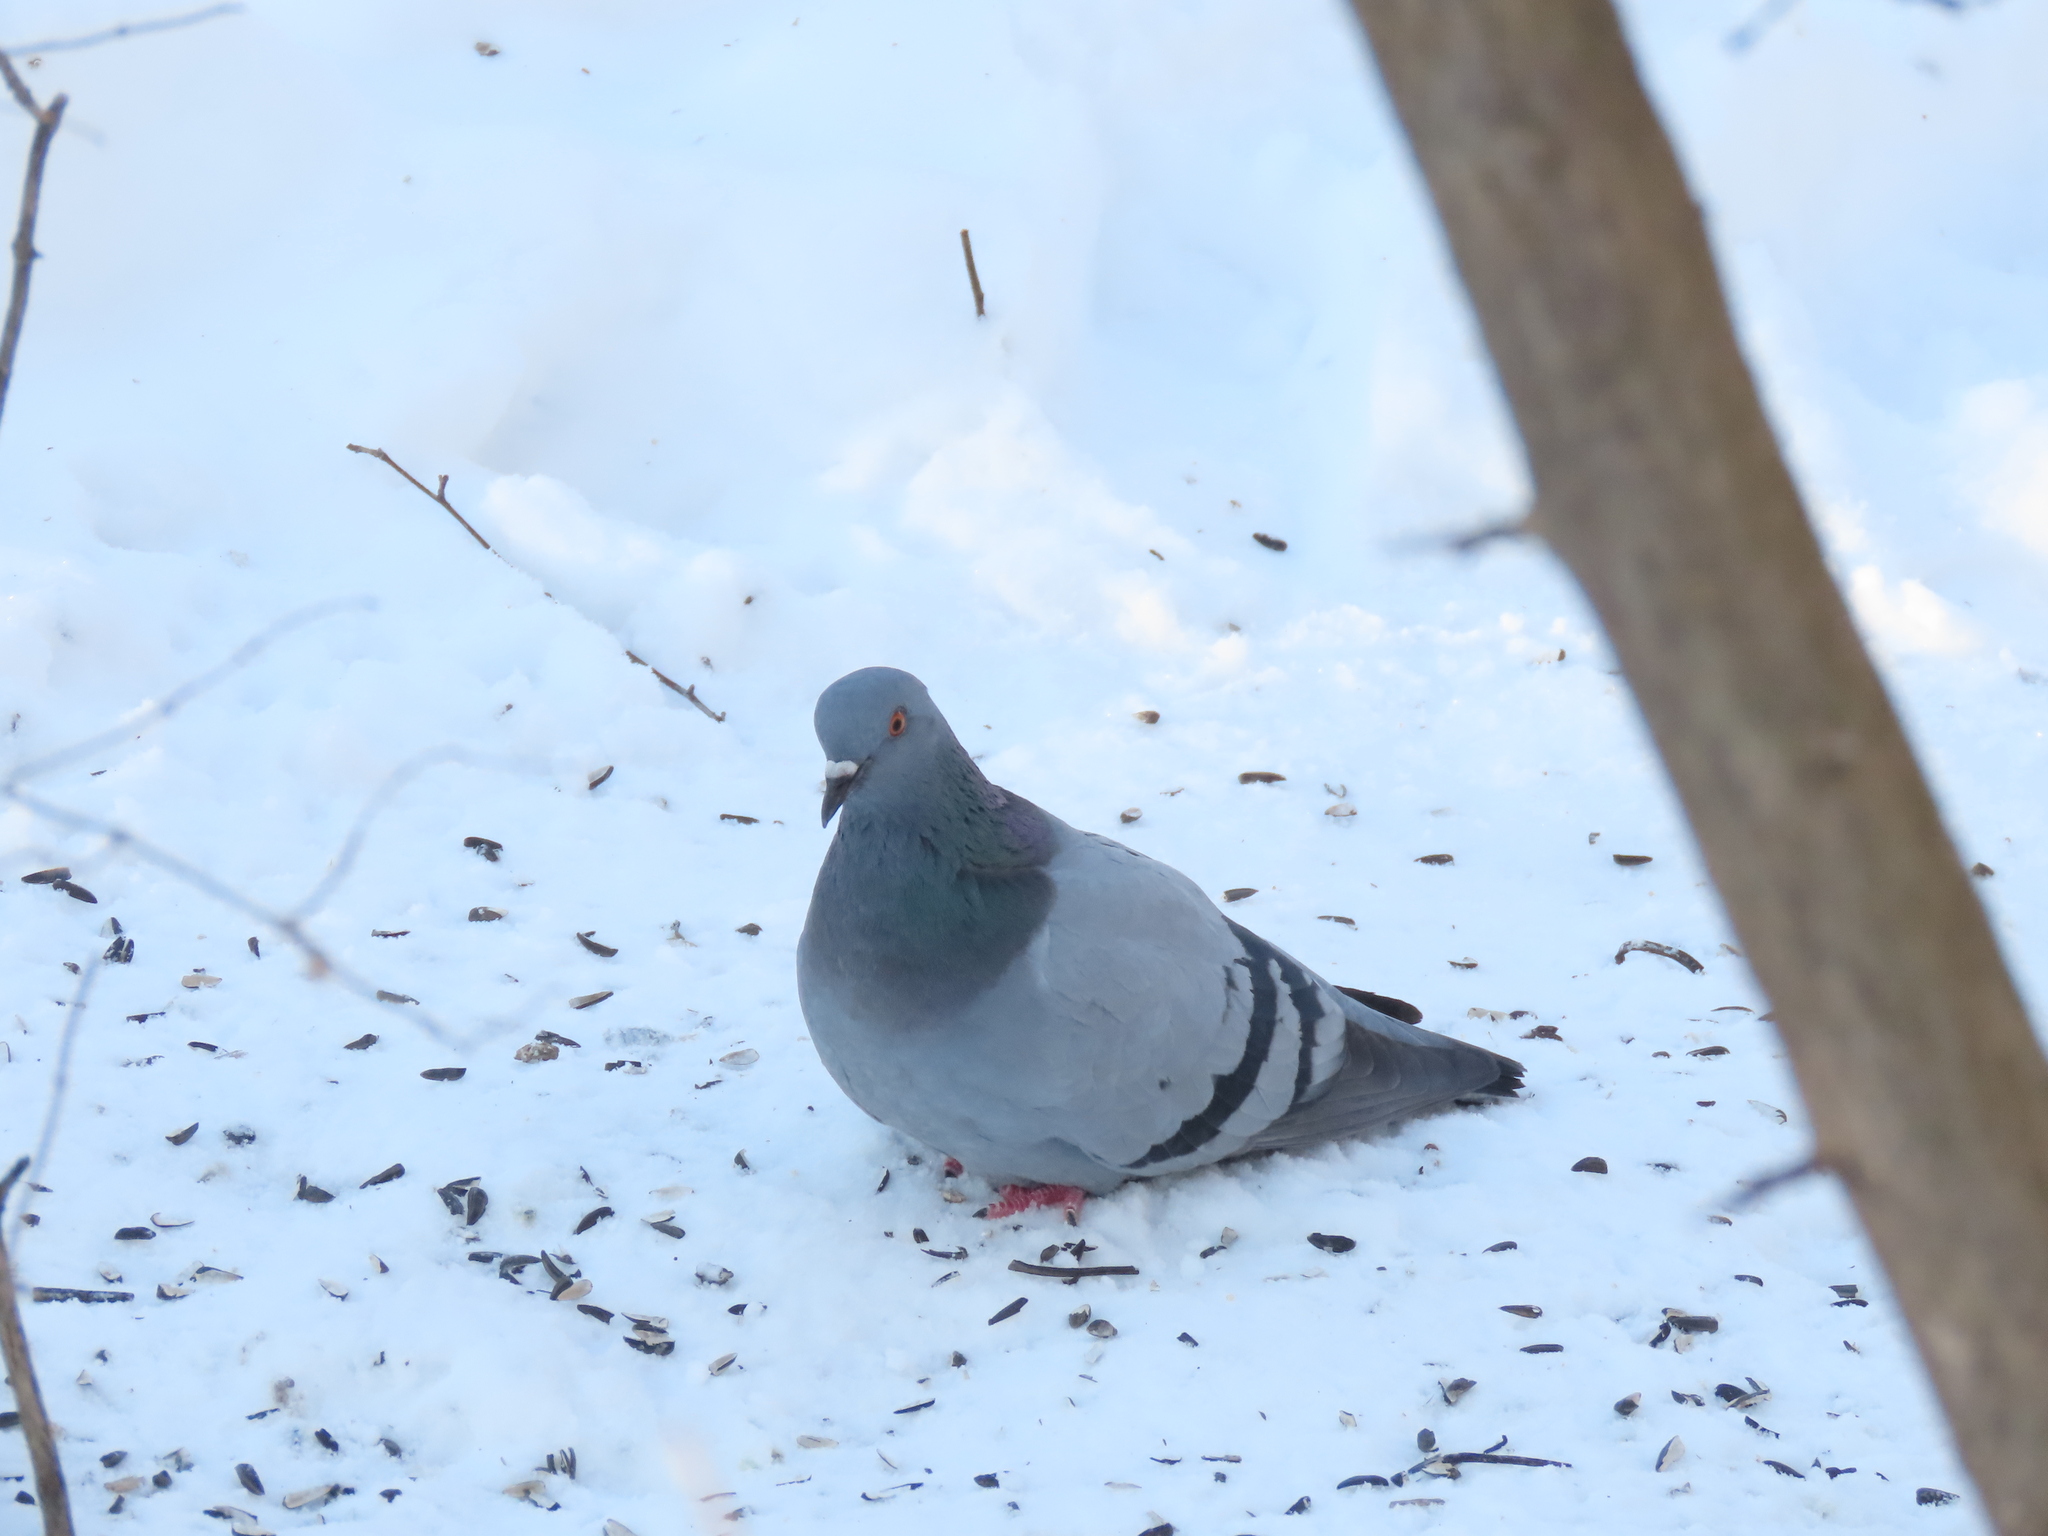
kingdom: Animalia
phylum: Chordata
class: Aves
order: Columbiformes
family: Columbidae
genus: Columba
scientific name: Columba livia
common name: Rock pigeon
